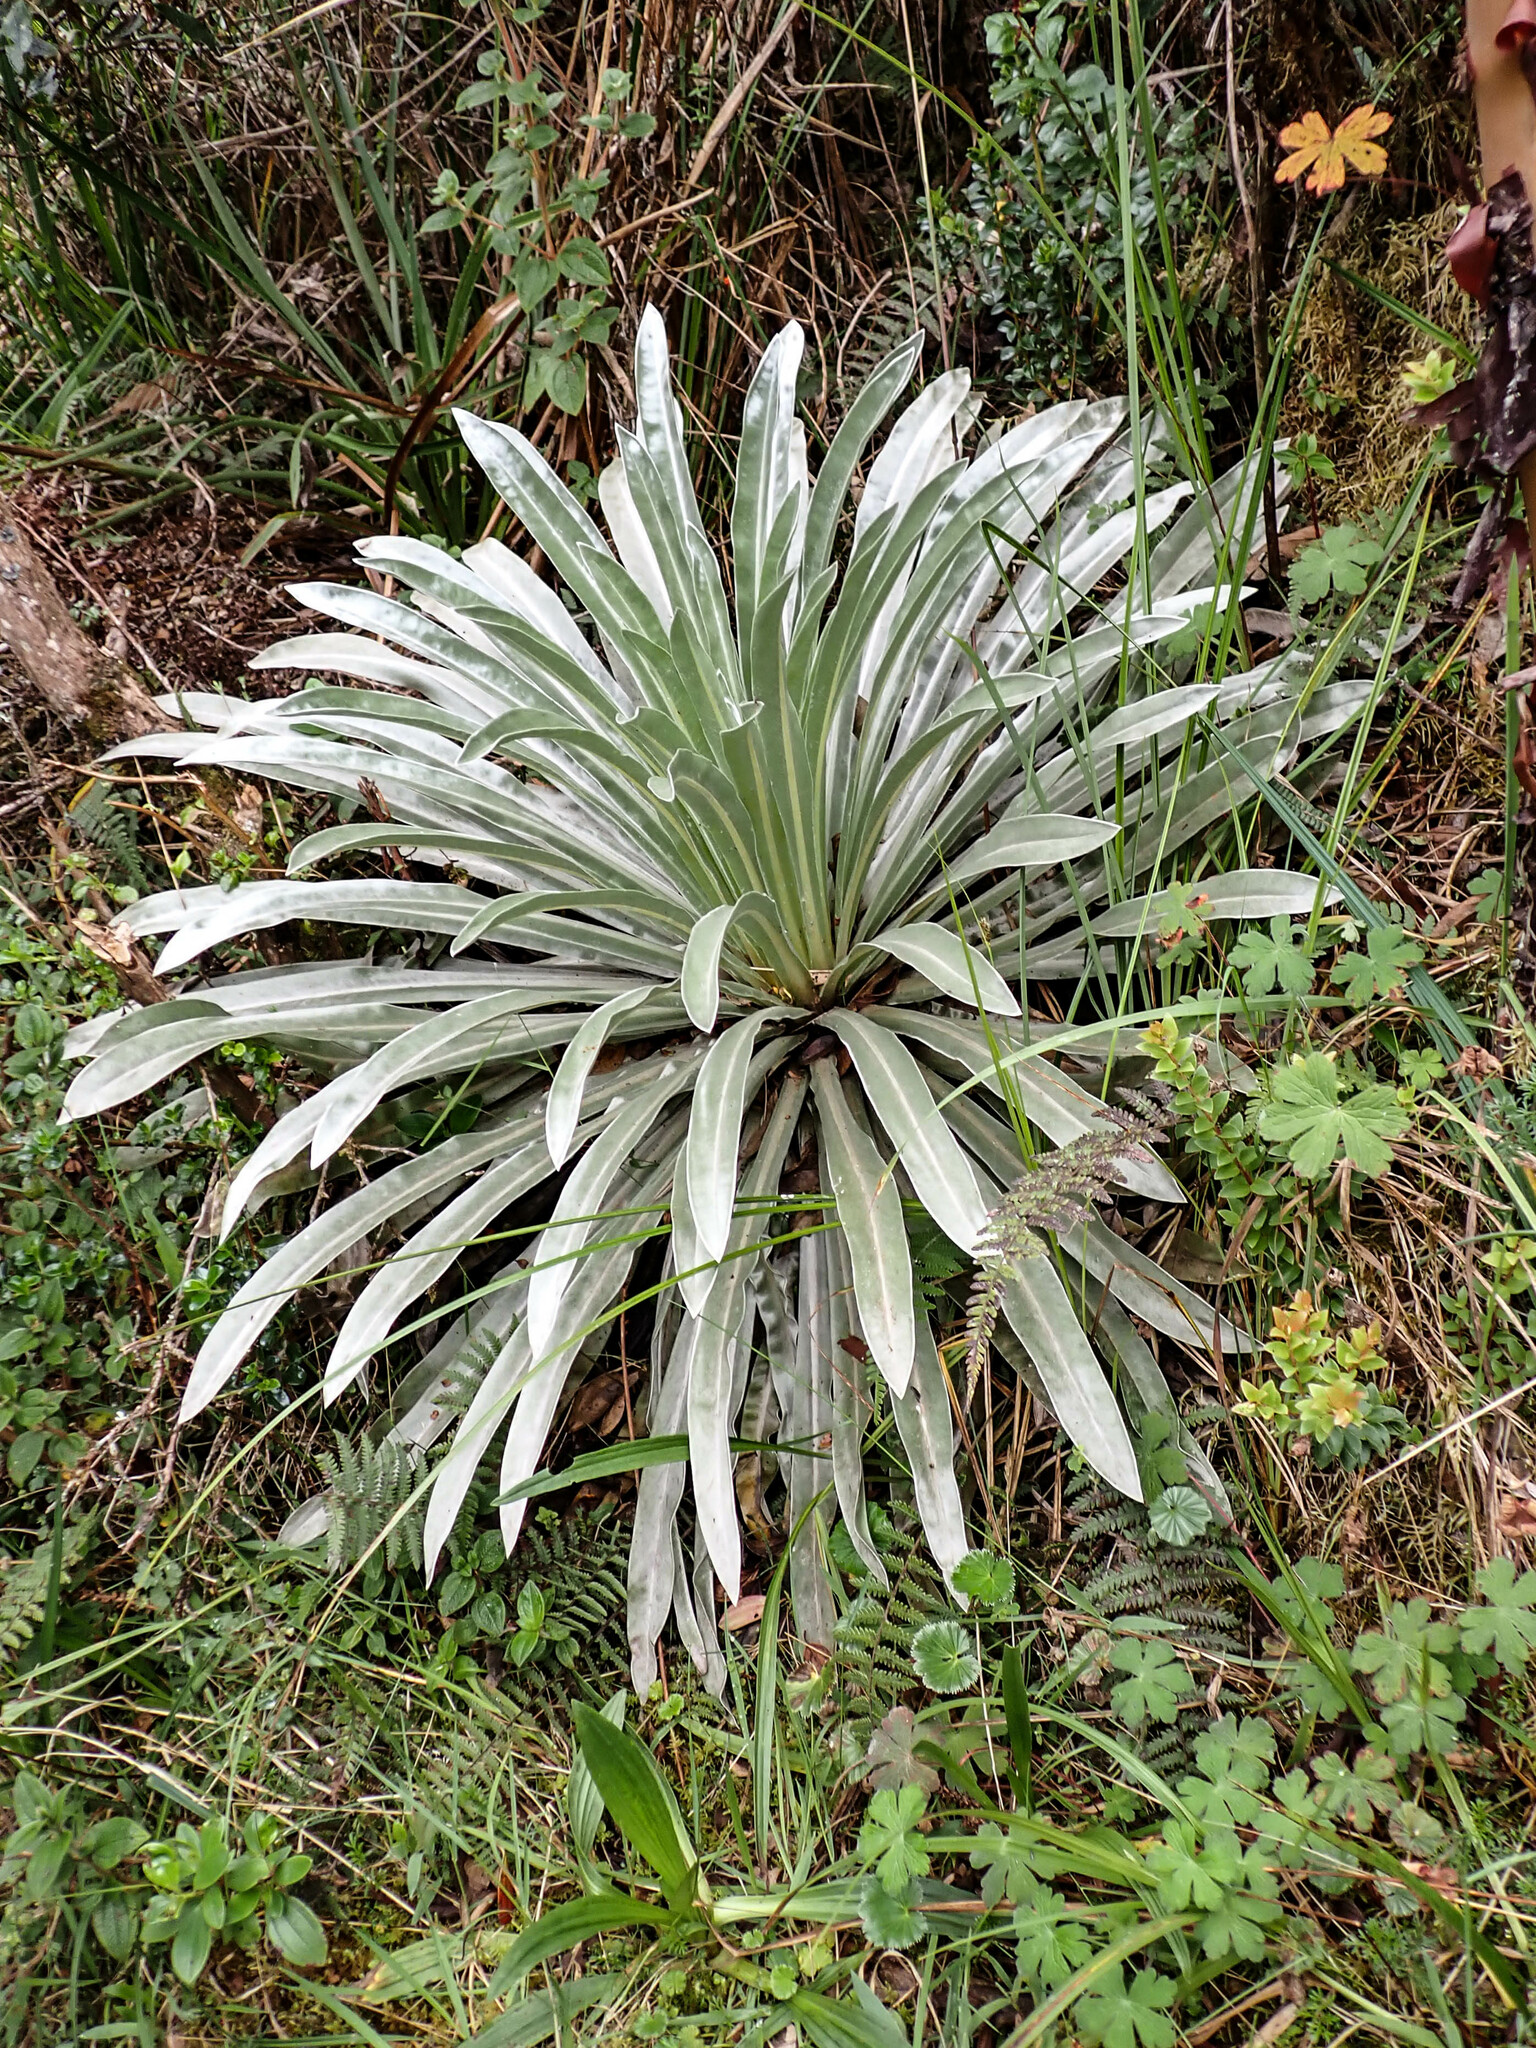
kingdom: Plantae
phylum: Tracheophyta
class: Magnoliopsida
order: Asterales
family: Asteraceae
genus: Espeletia
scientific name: Espeletia argentea
